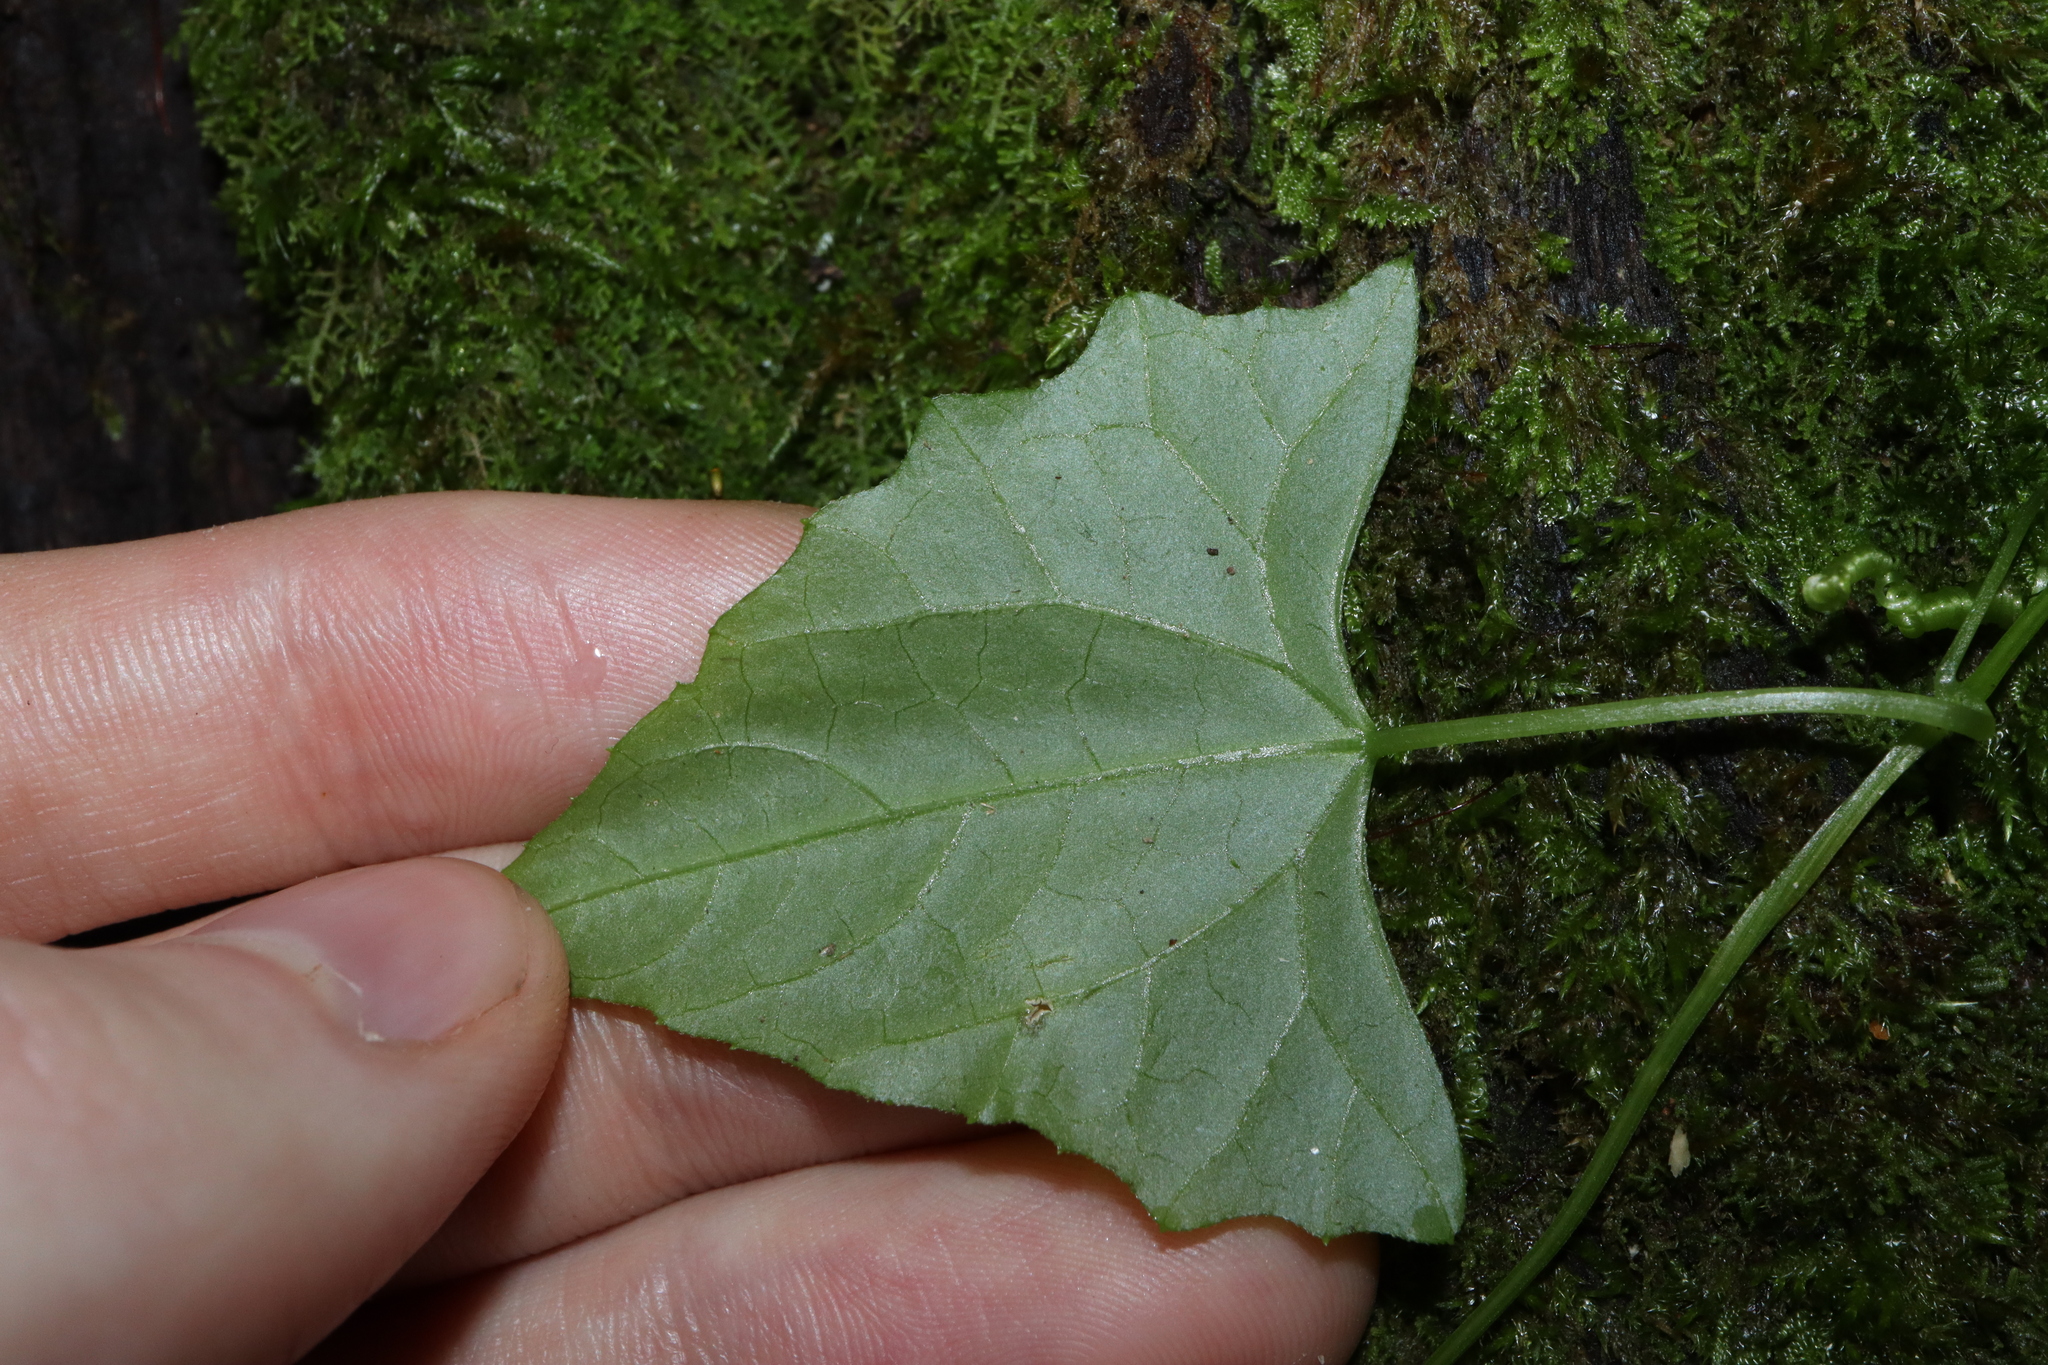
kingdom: Plantae
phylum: Tracheophyta
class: Magnoliopsida
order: Cucurbitales
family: Cucurbitaceae
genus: Zehneria
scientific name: Zehneria cunninghamii
